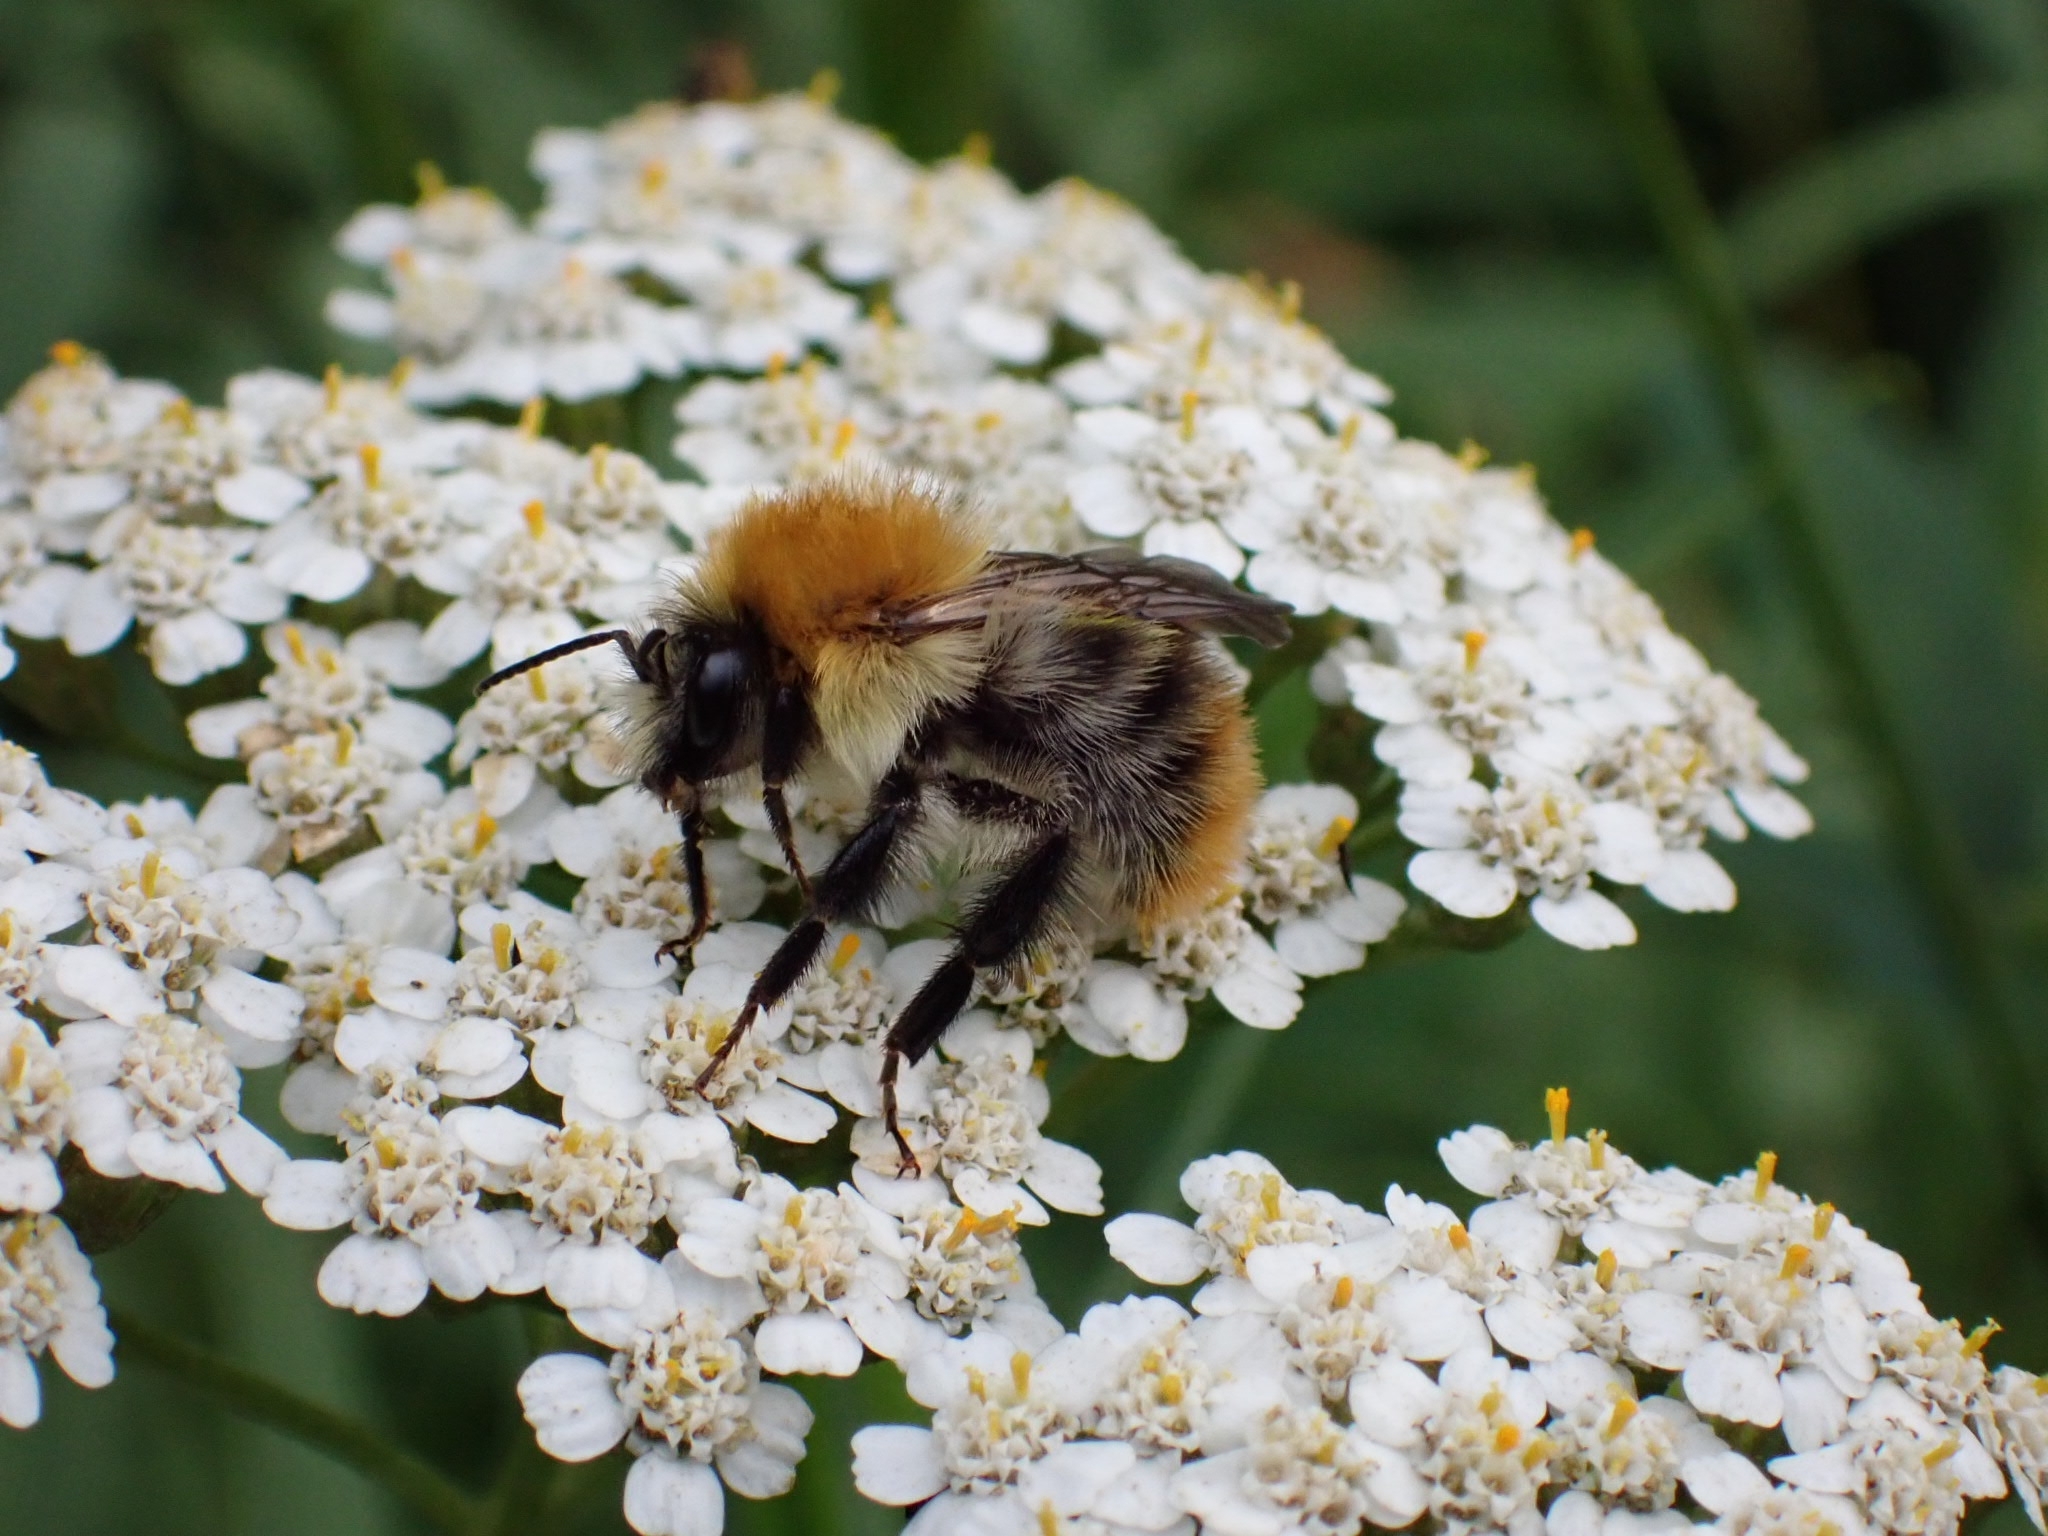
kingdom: Animalia
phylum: Arthropoda
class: Insecta
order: Hymenoptera
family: Apidae
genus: Bombus
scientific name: Bombus pascuorum
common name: Common carder bee
